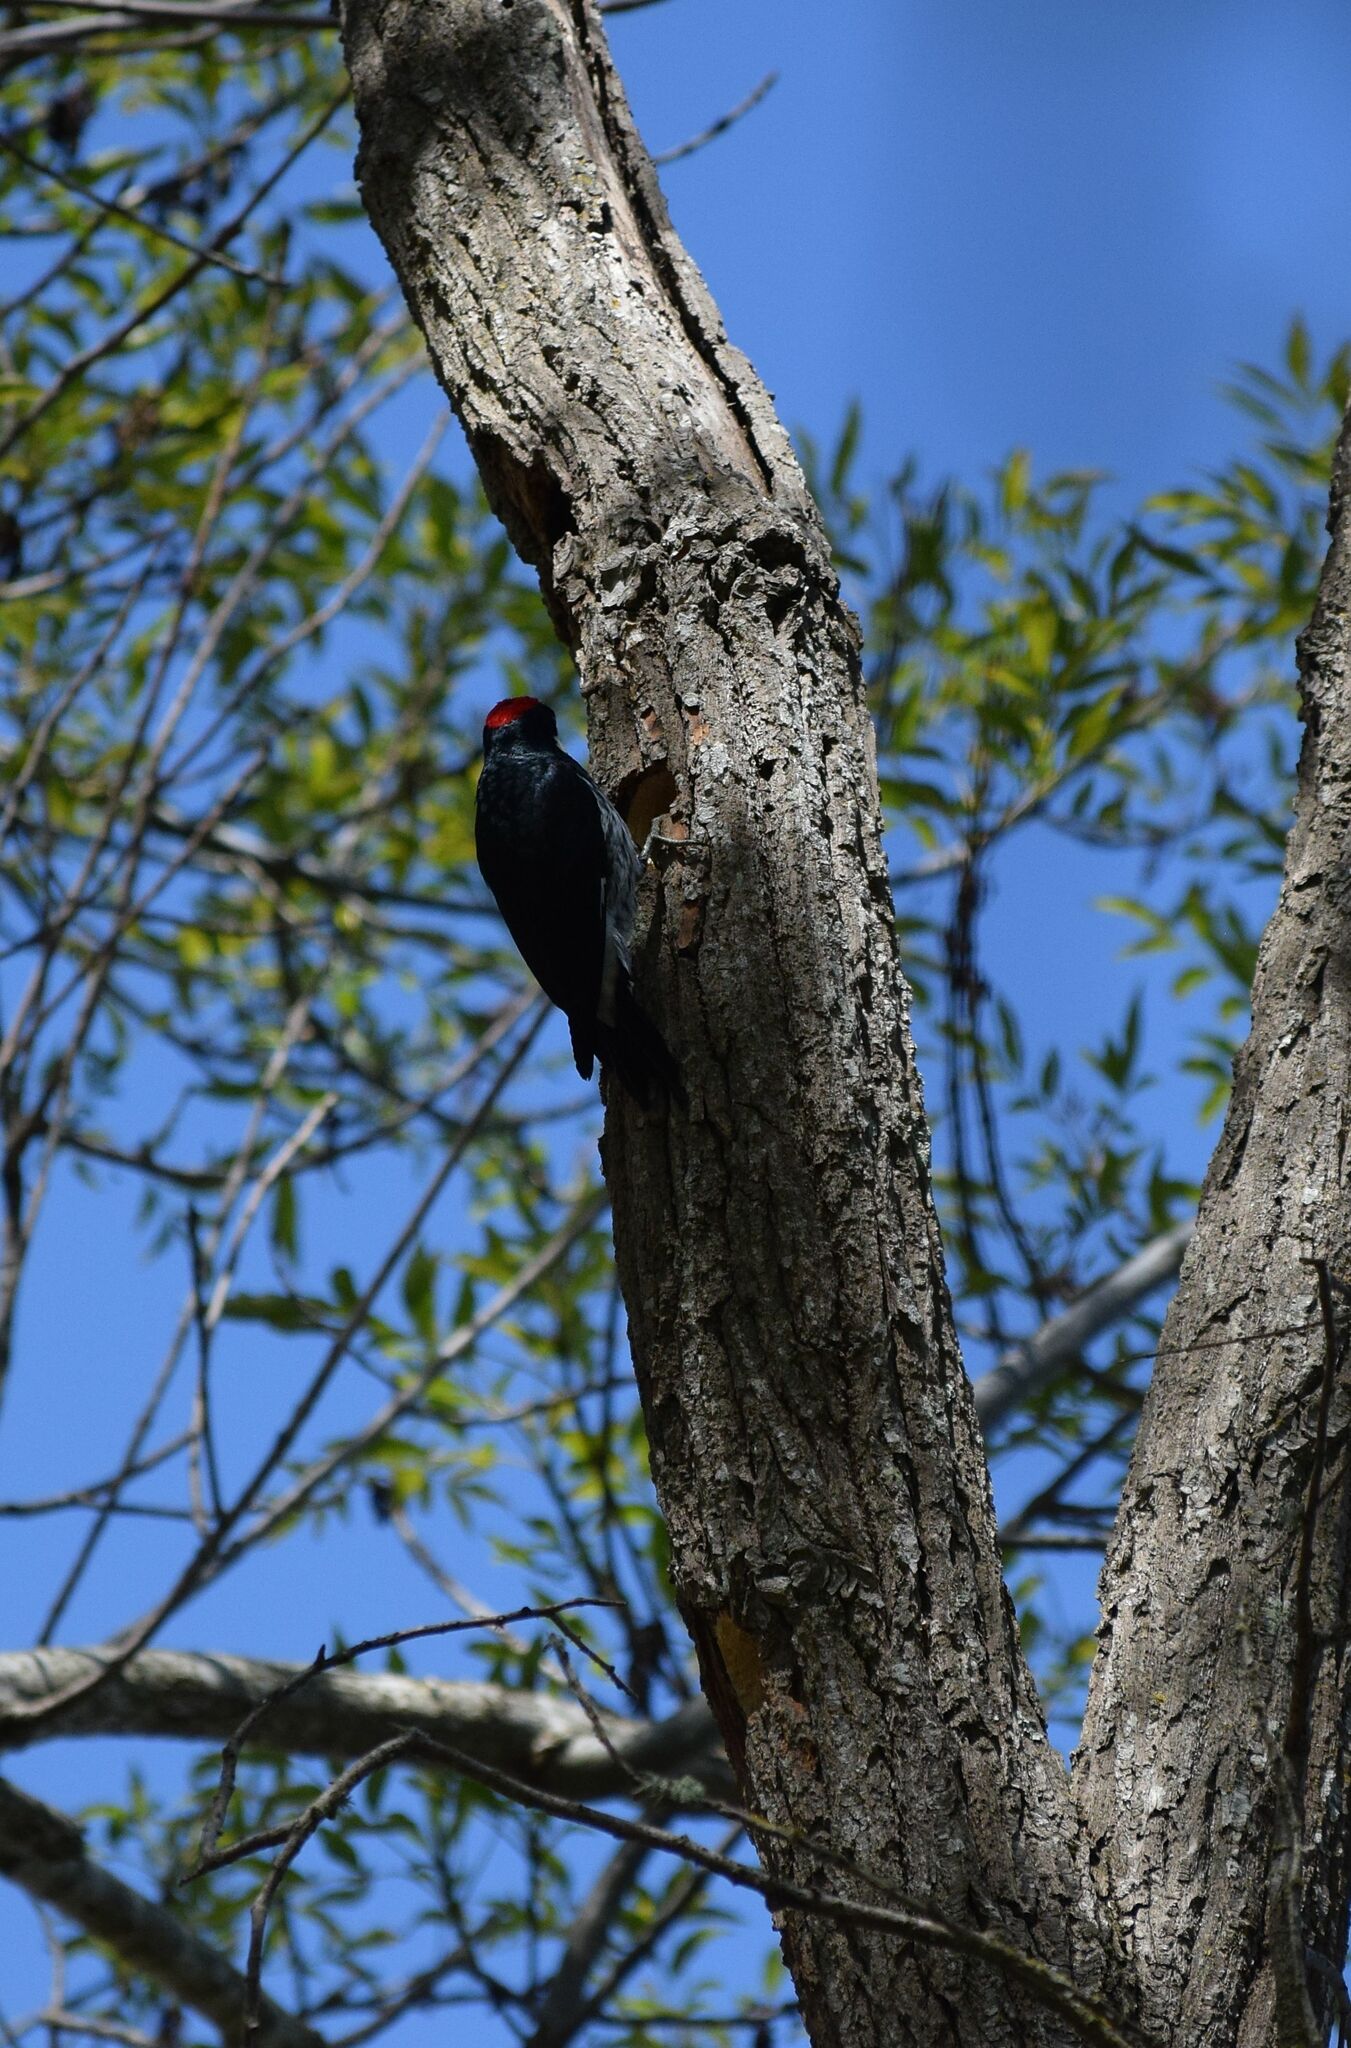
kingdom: Animalia
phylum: Chordata
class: Aves
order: Piciformes
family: Picidae
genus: Melanerpes
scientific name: Melanerpes formicivorus
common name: Acorn woodpecker
